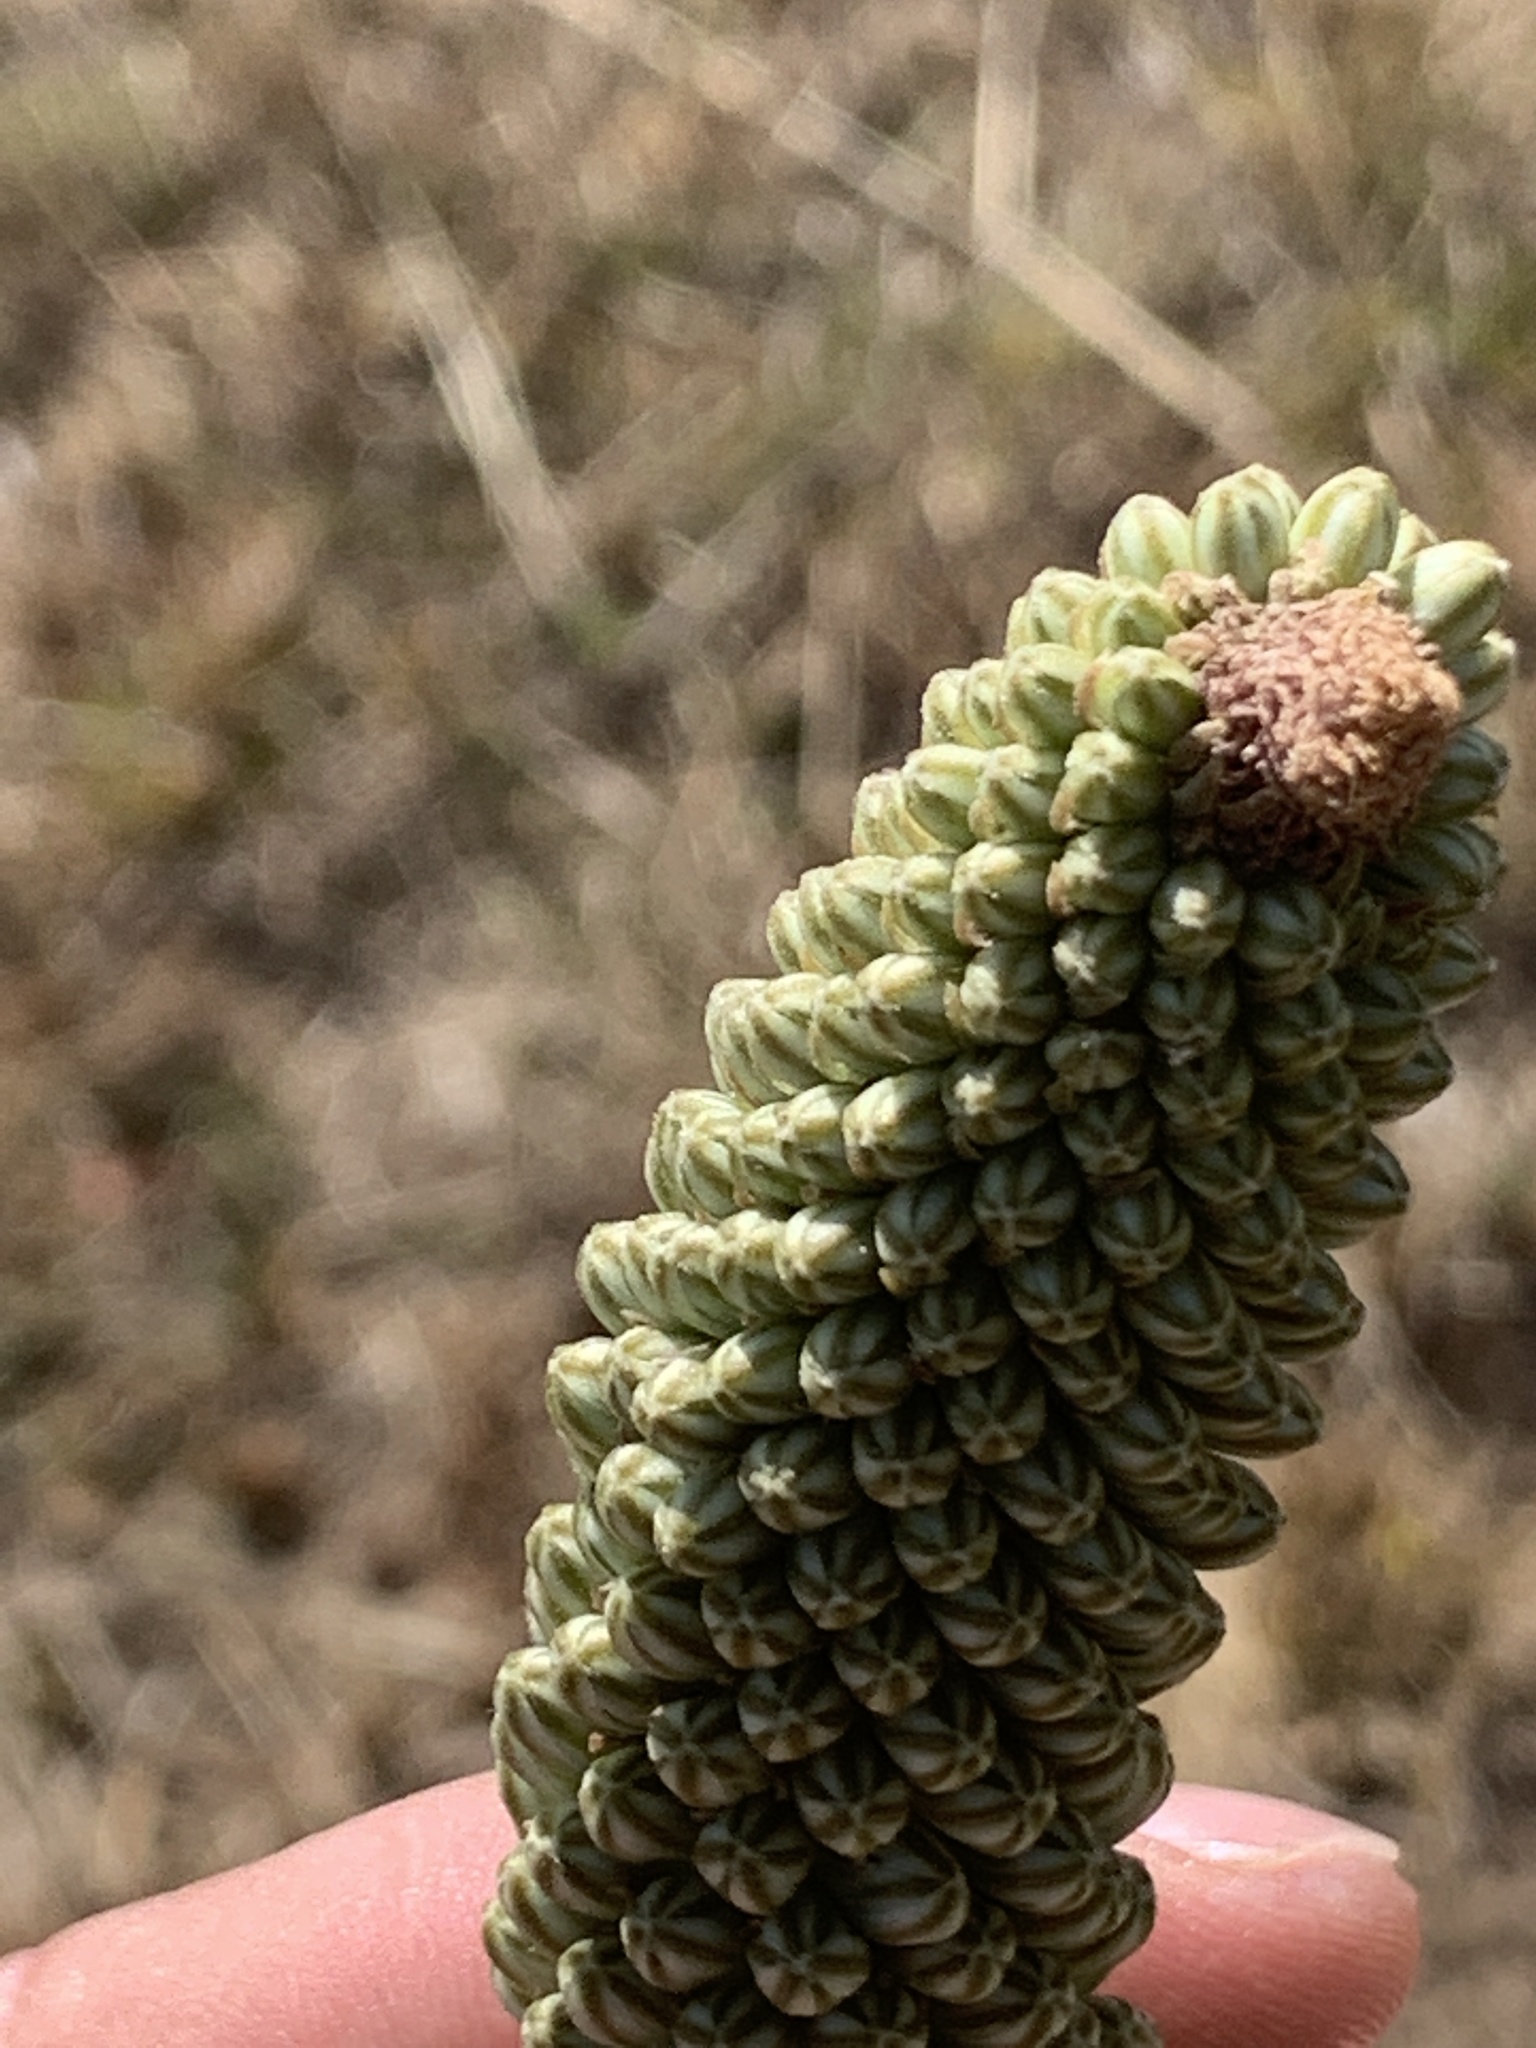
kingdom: Plantae
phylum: Tracheophyta
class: Liliopsida
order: Asparagales
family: Asparagaceae
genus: Drimia
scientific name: Drimia capensis
